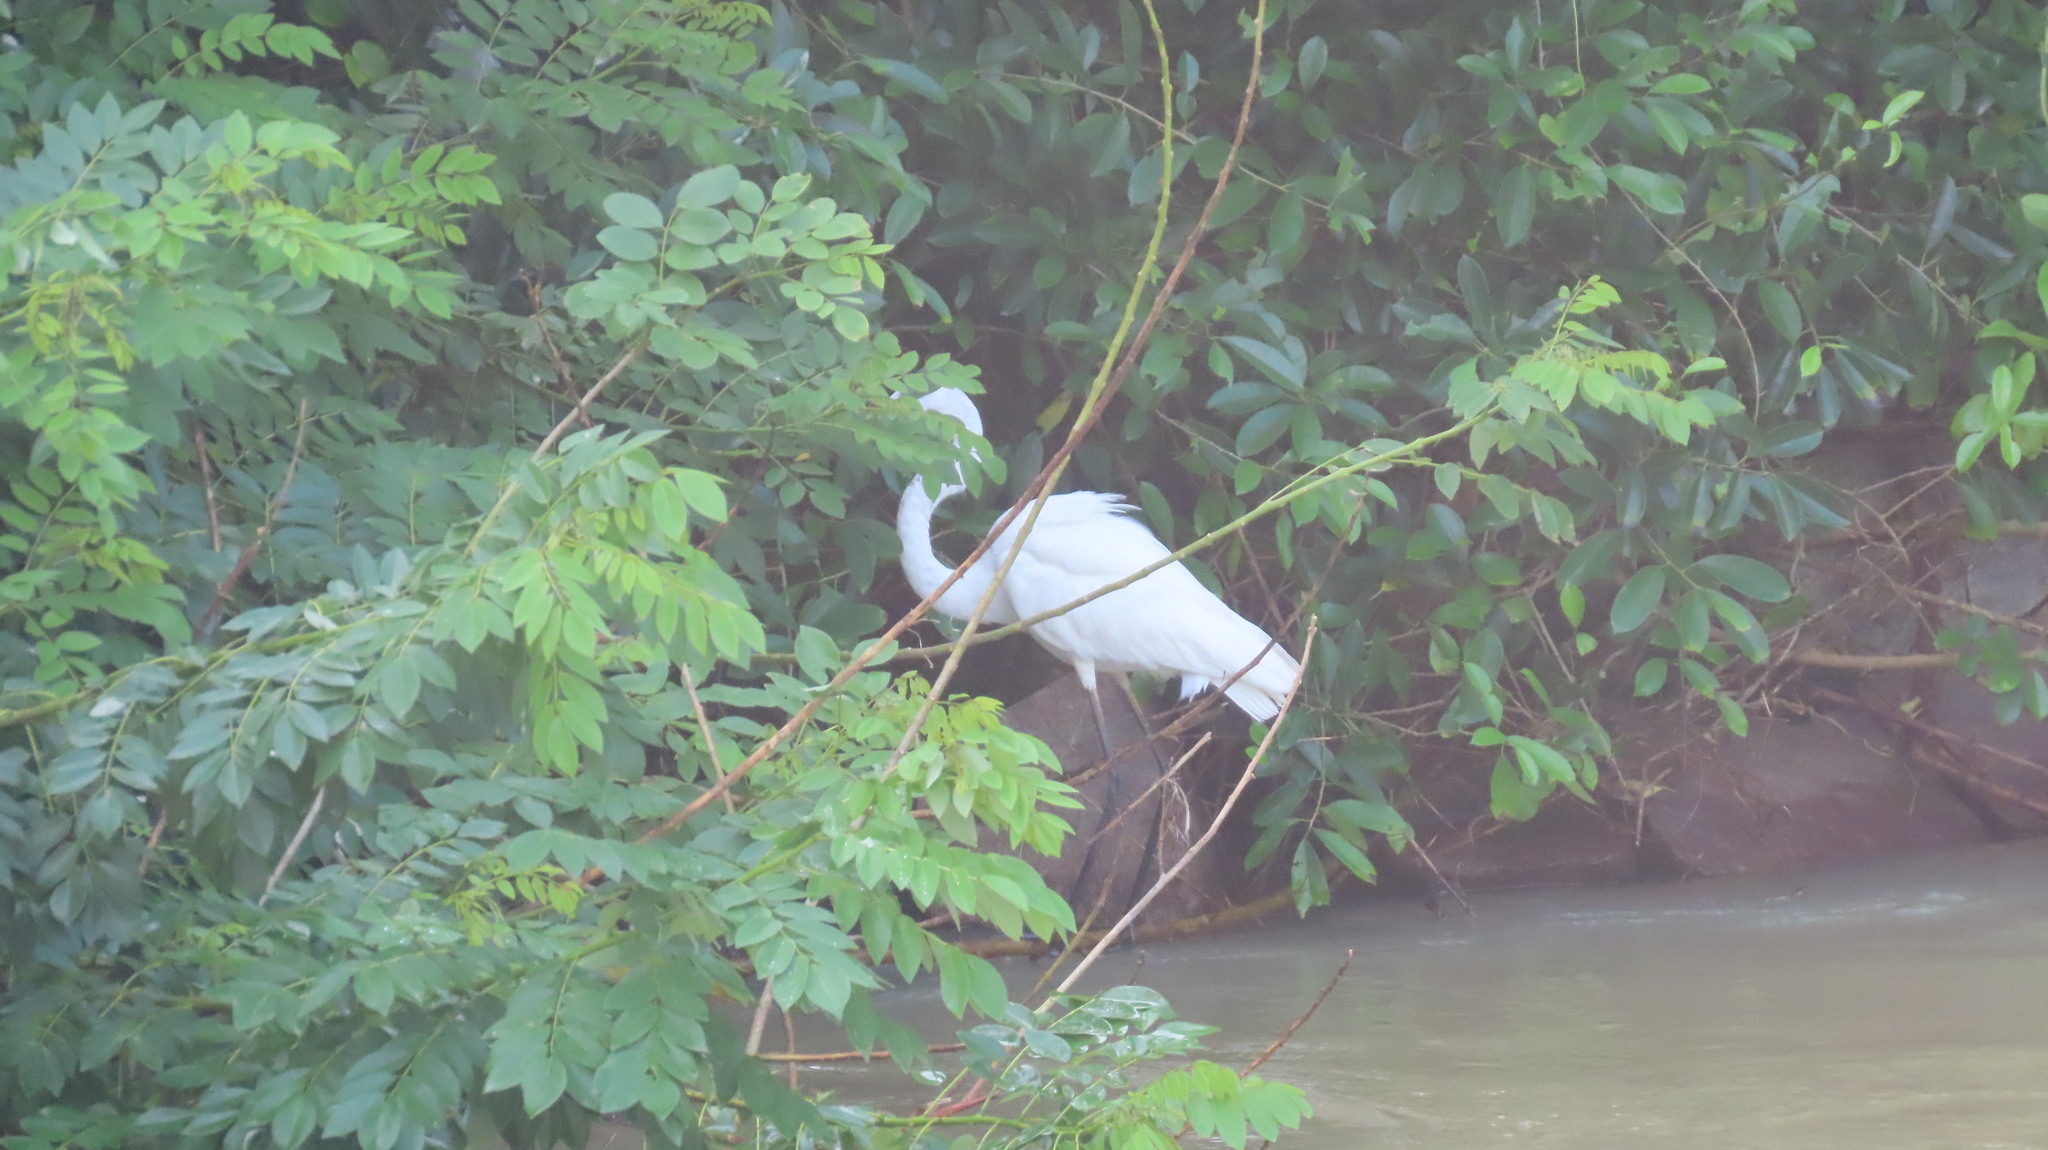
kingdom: Animalia
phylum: Chordata
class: Aves
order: Pelecaniformes
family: Ardeidae
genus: Ardea
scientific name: Ardea alba
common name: Great egret
